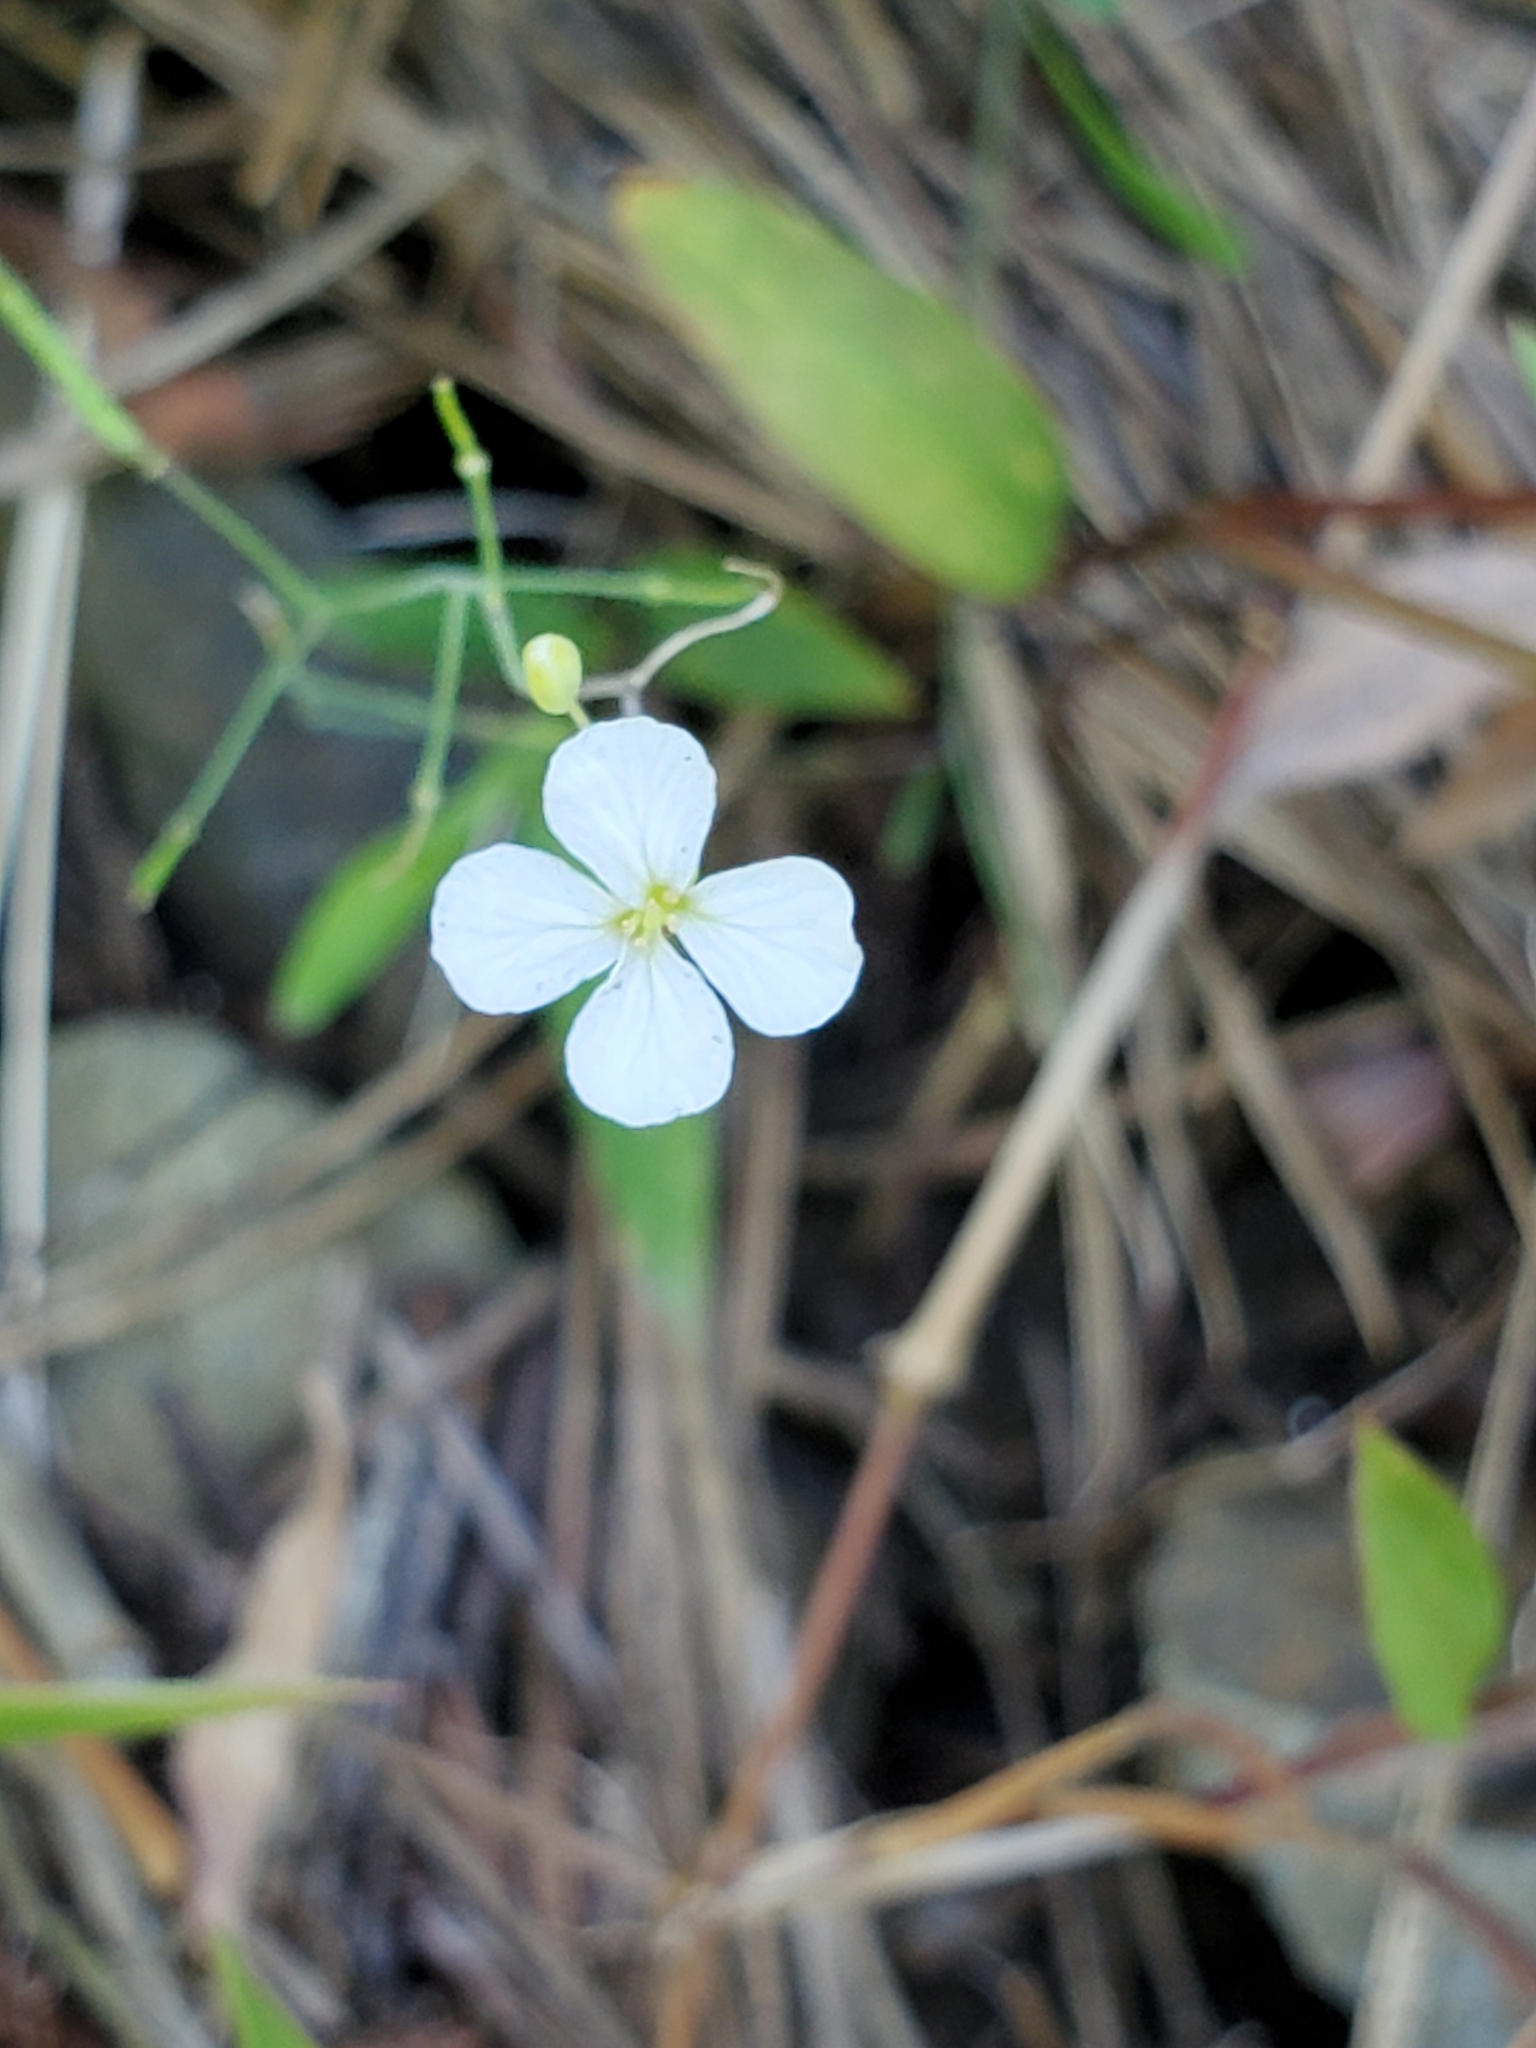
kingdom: Plantae
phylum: Tracheophyta
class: Magnoliopsida
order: Brassicales
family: Brassicaceae
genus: Arabidopsis
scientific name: Arabidopsis lyrata
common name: Lyrate rockcress
